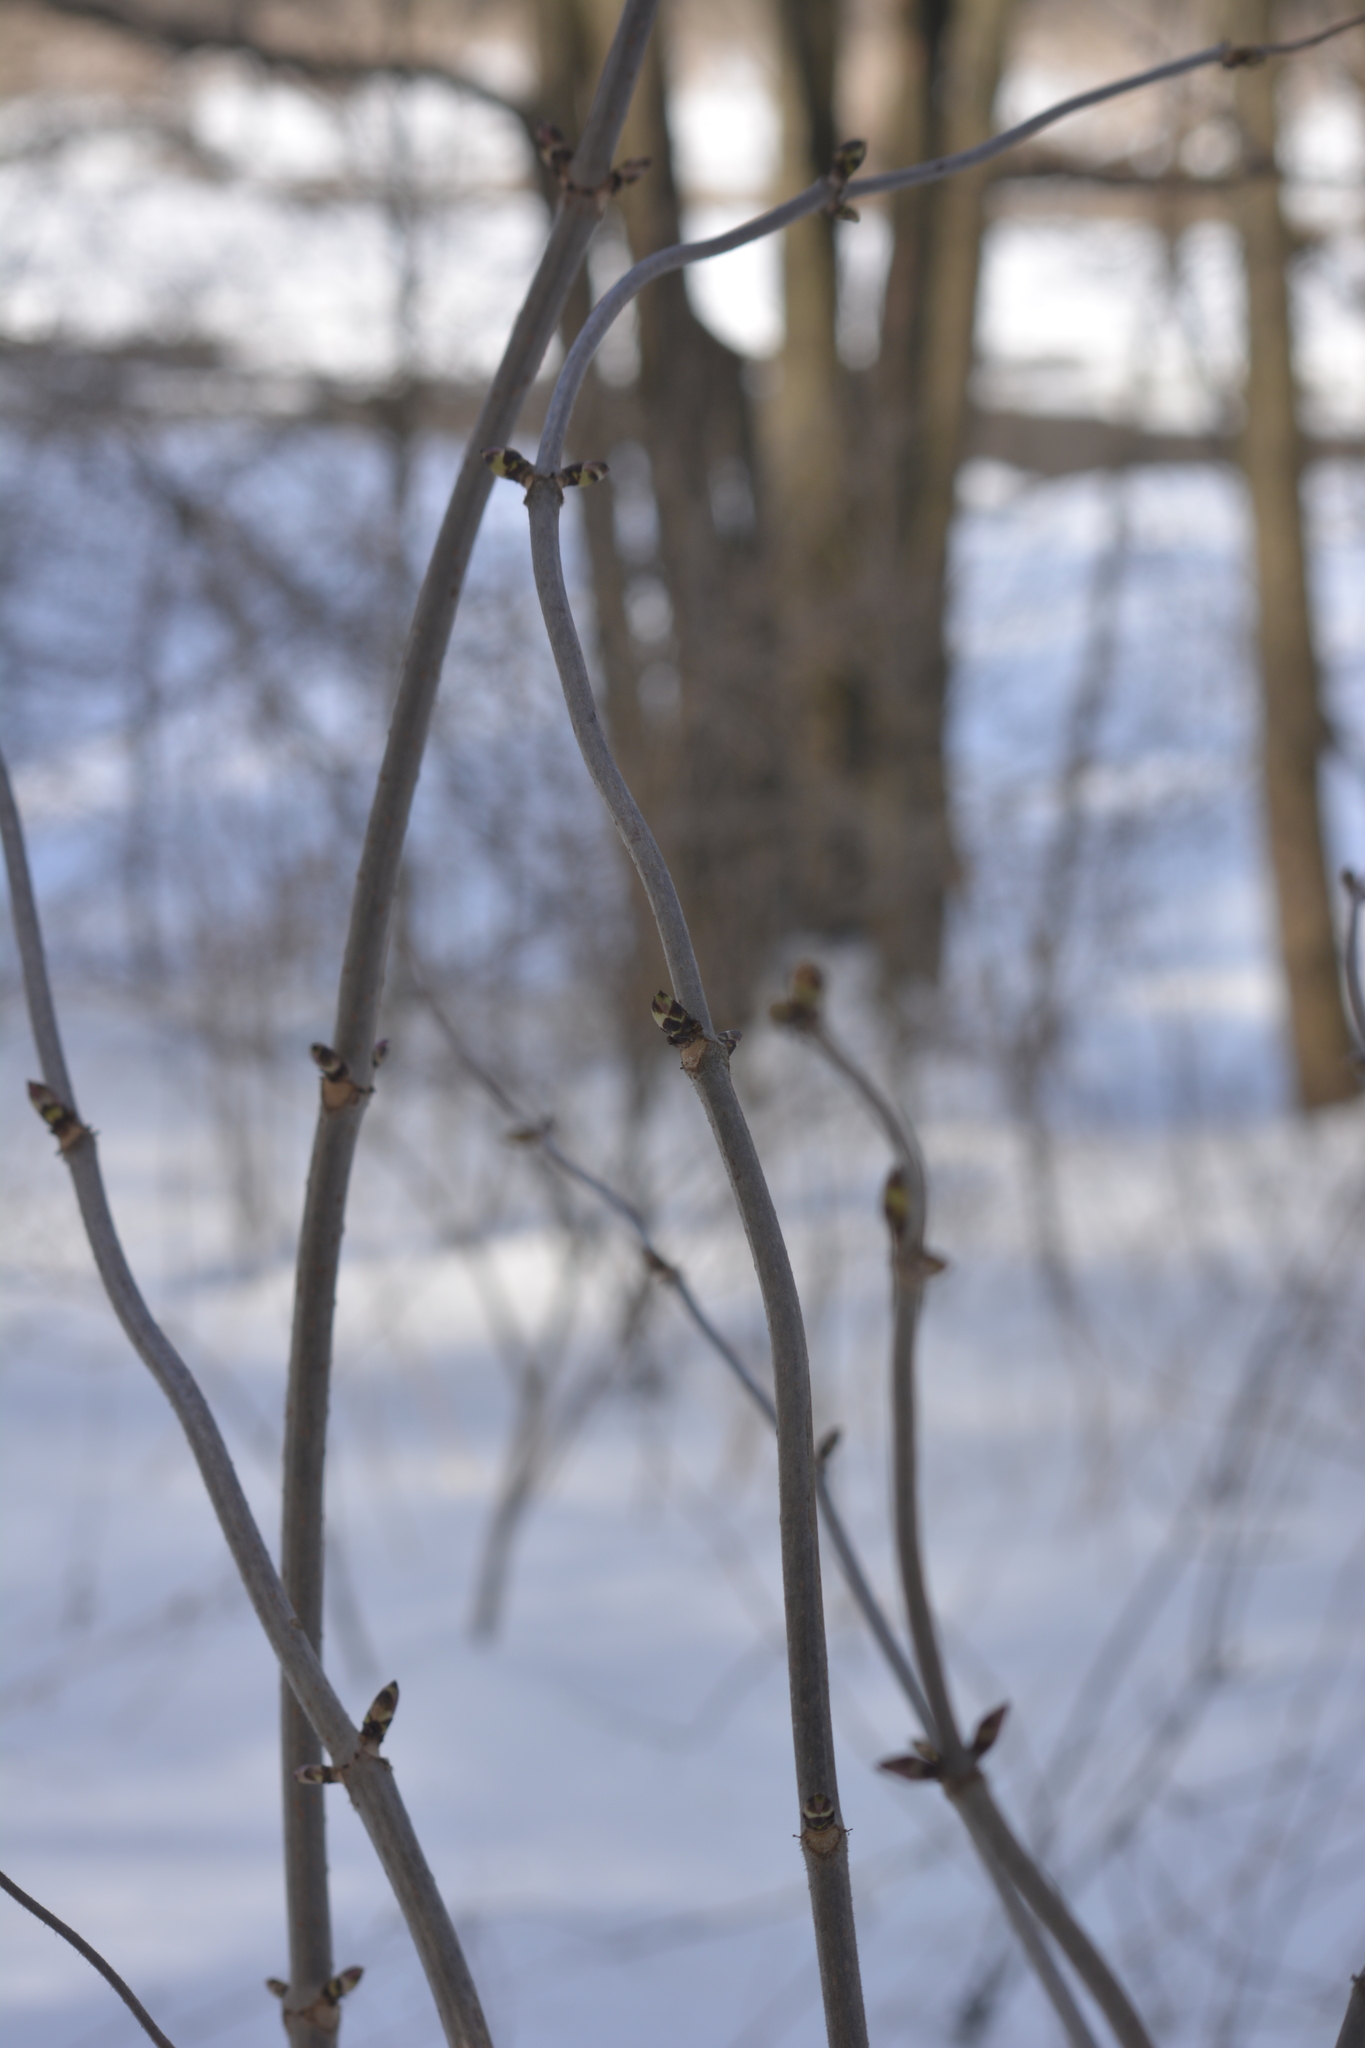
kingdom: Plantae
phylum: Tracheophyta
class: Magnoliopsida
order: Dipsacales
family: Viburnaceae
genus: Sambucus
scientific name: Sambucus racemosa
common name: Red-berried elder
